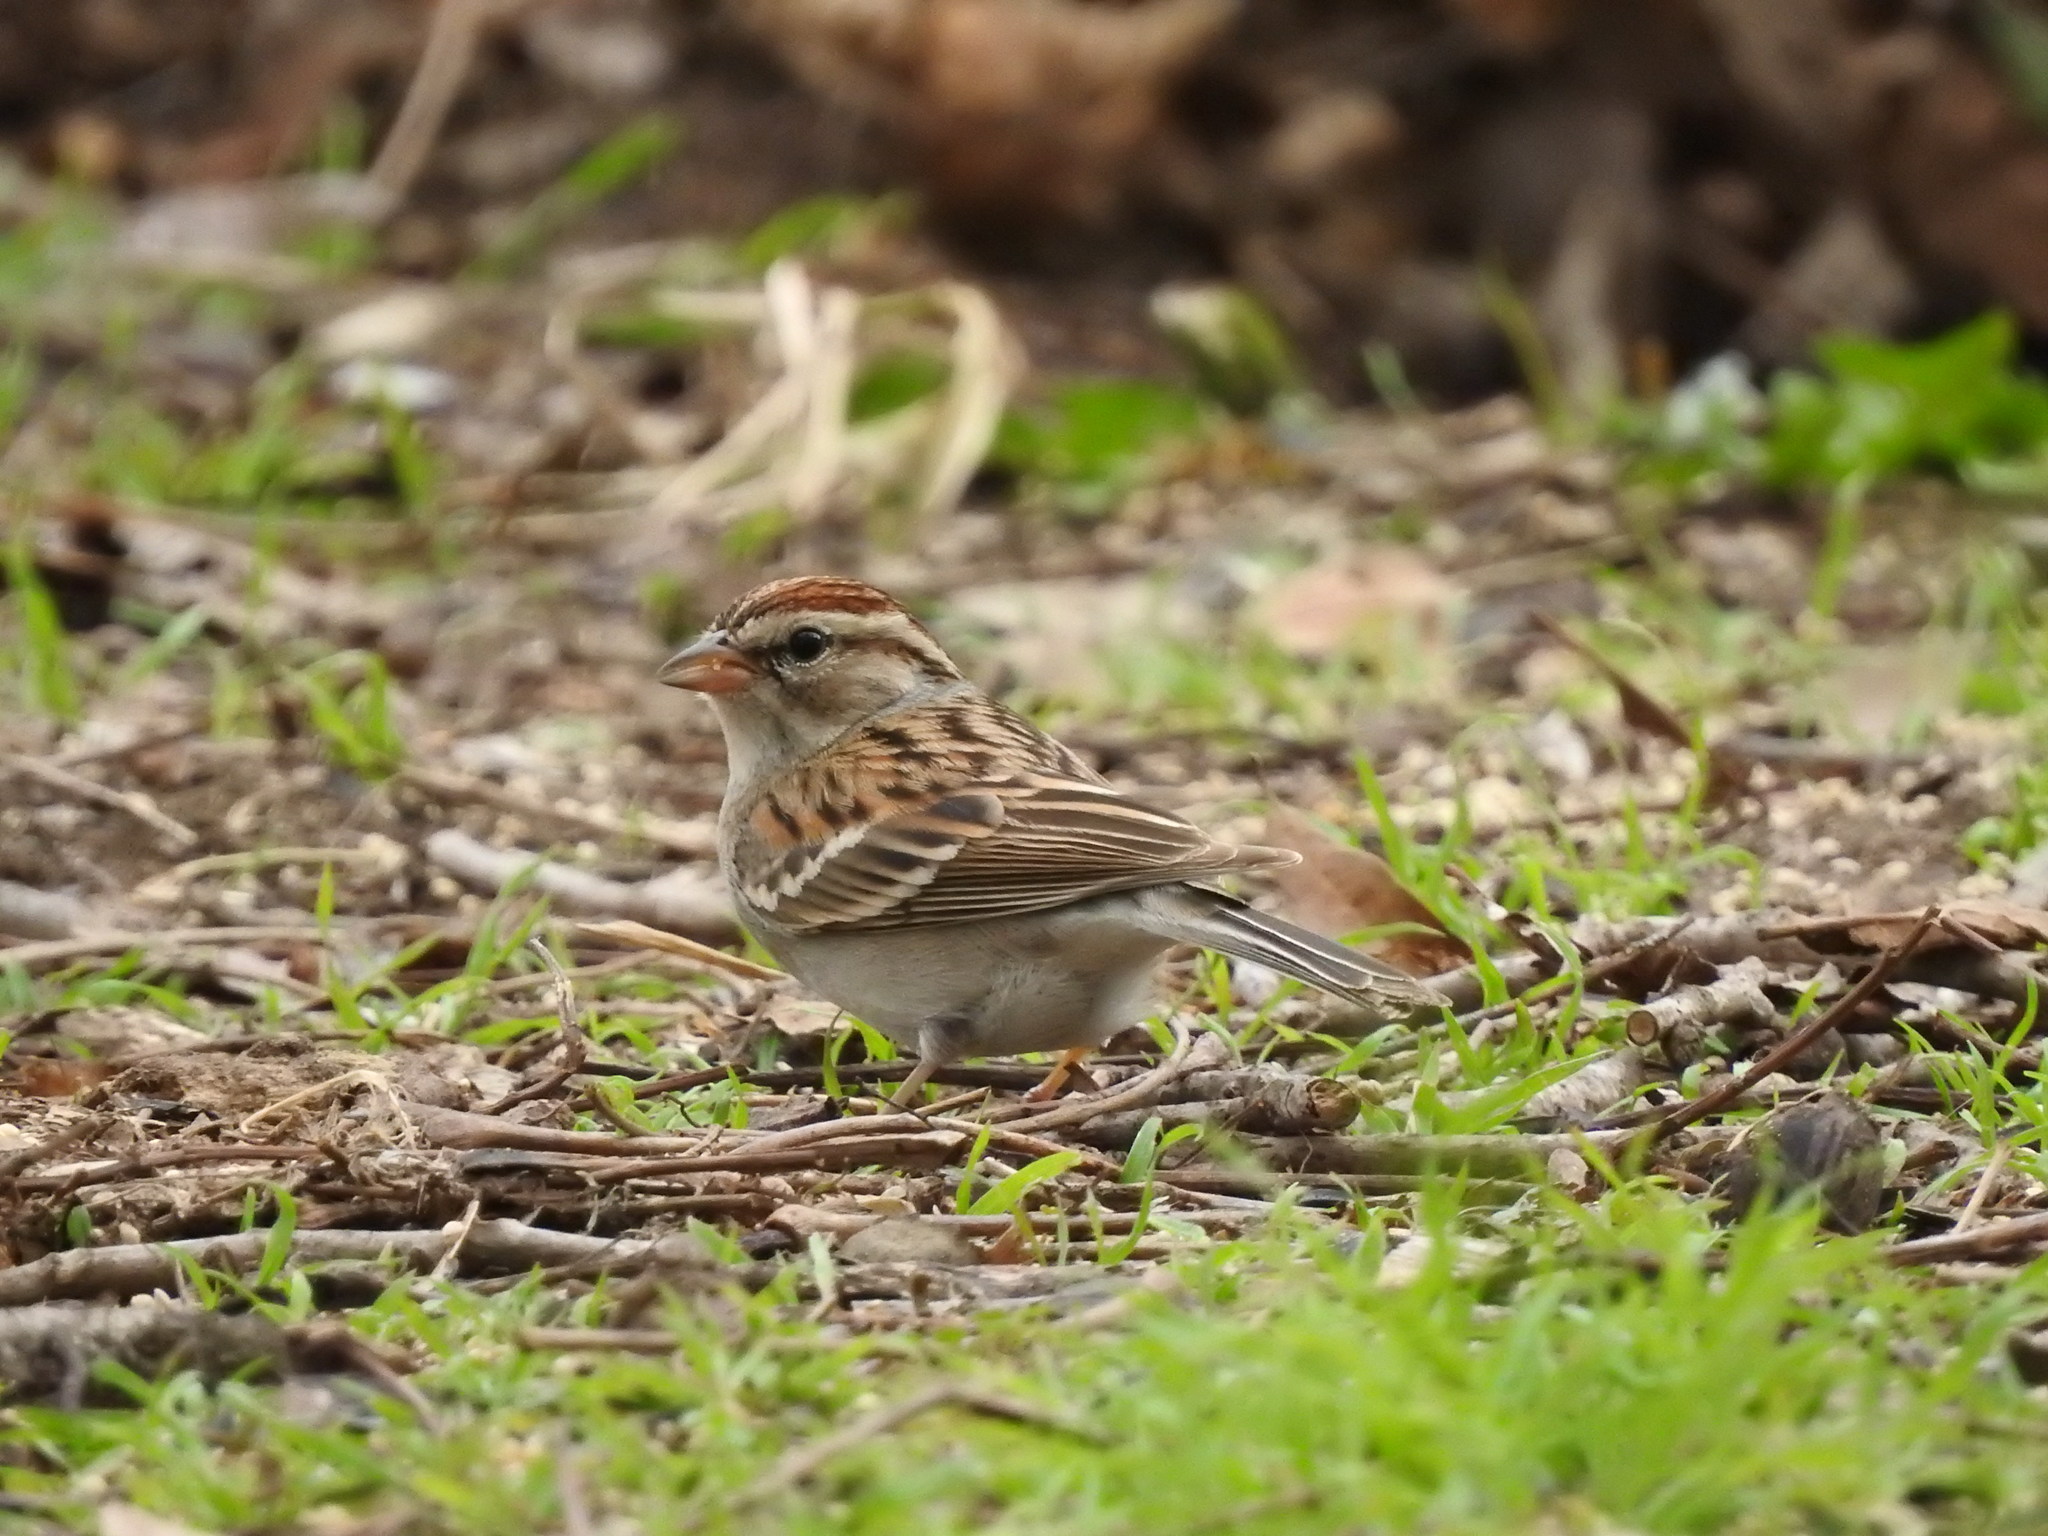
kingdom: Animalia
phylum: Chordata
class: Aves
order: Passeriformes
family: Passerellidae
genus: Spizella
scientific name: Spizella passerina
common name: Chipping sparrow
